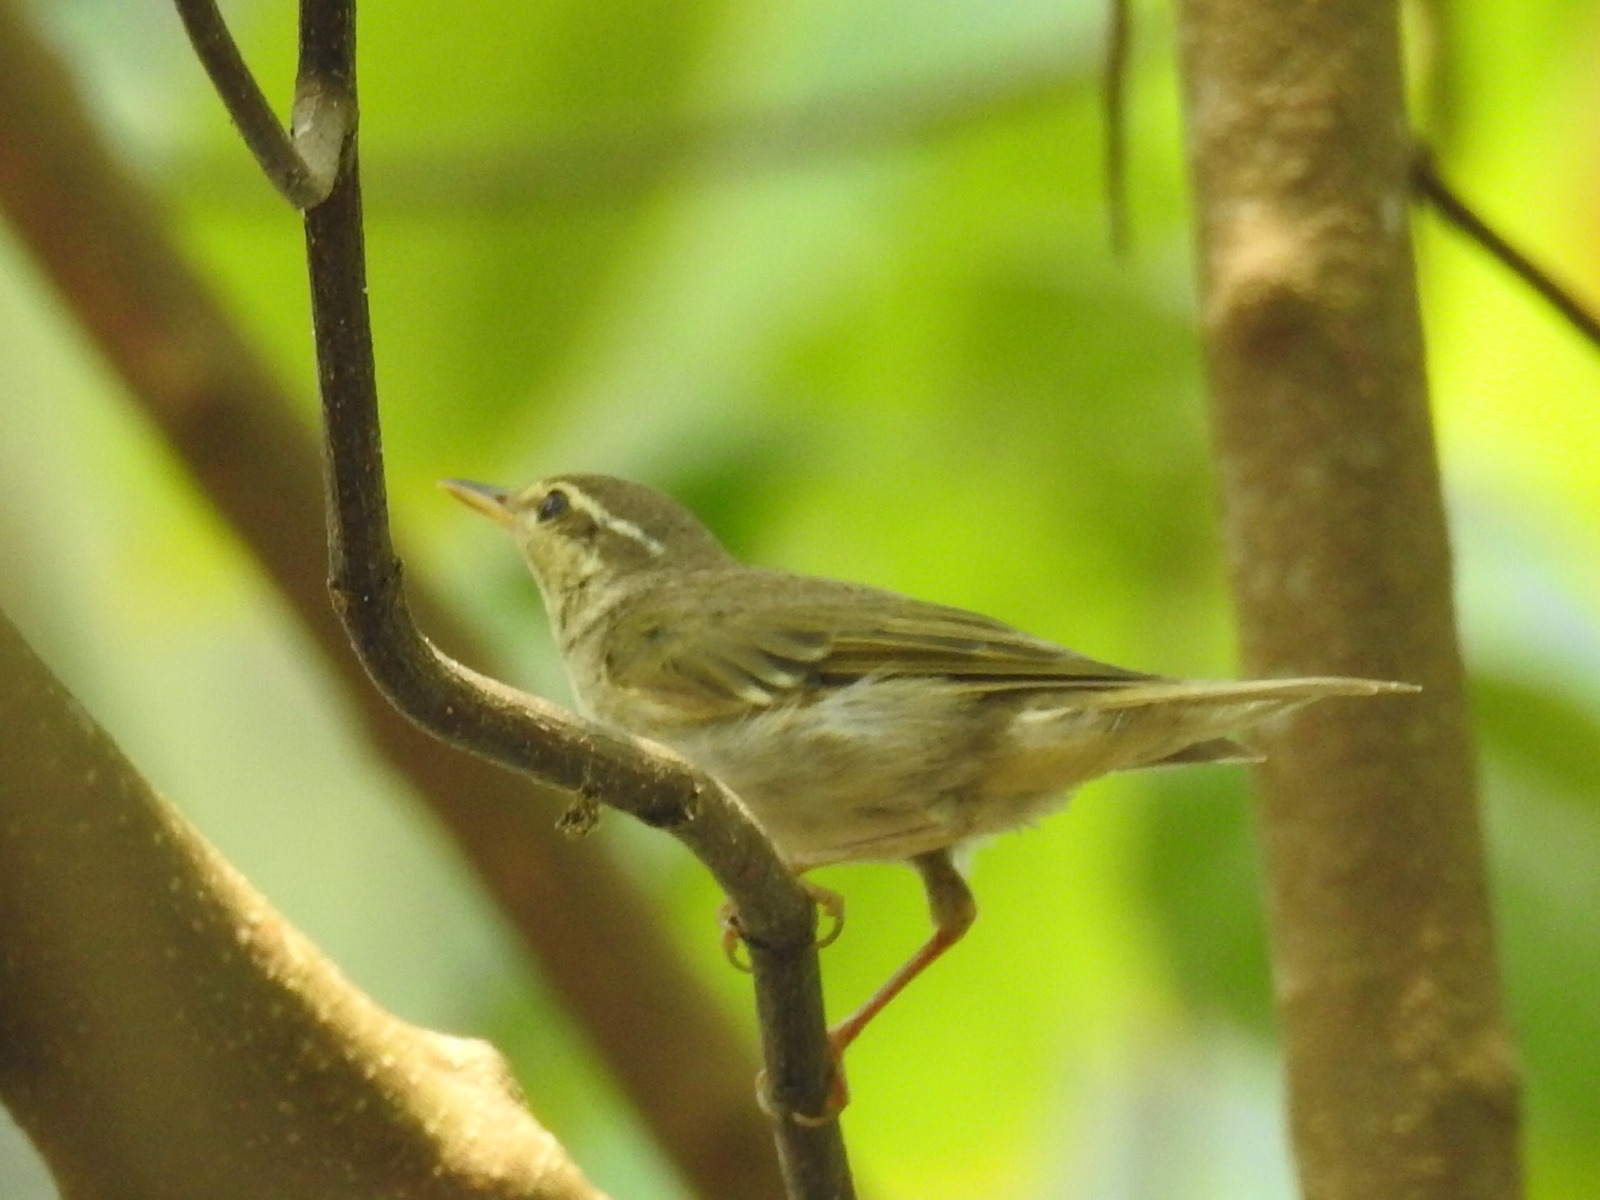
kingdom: Animalia
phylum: Chordata
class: Aves
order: Passeriformes
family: Phylloscopidae
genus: Phylloscopus
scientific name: Phylloscopus borealis
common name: Arctic warbler
